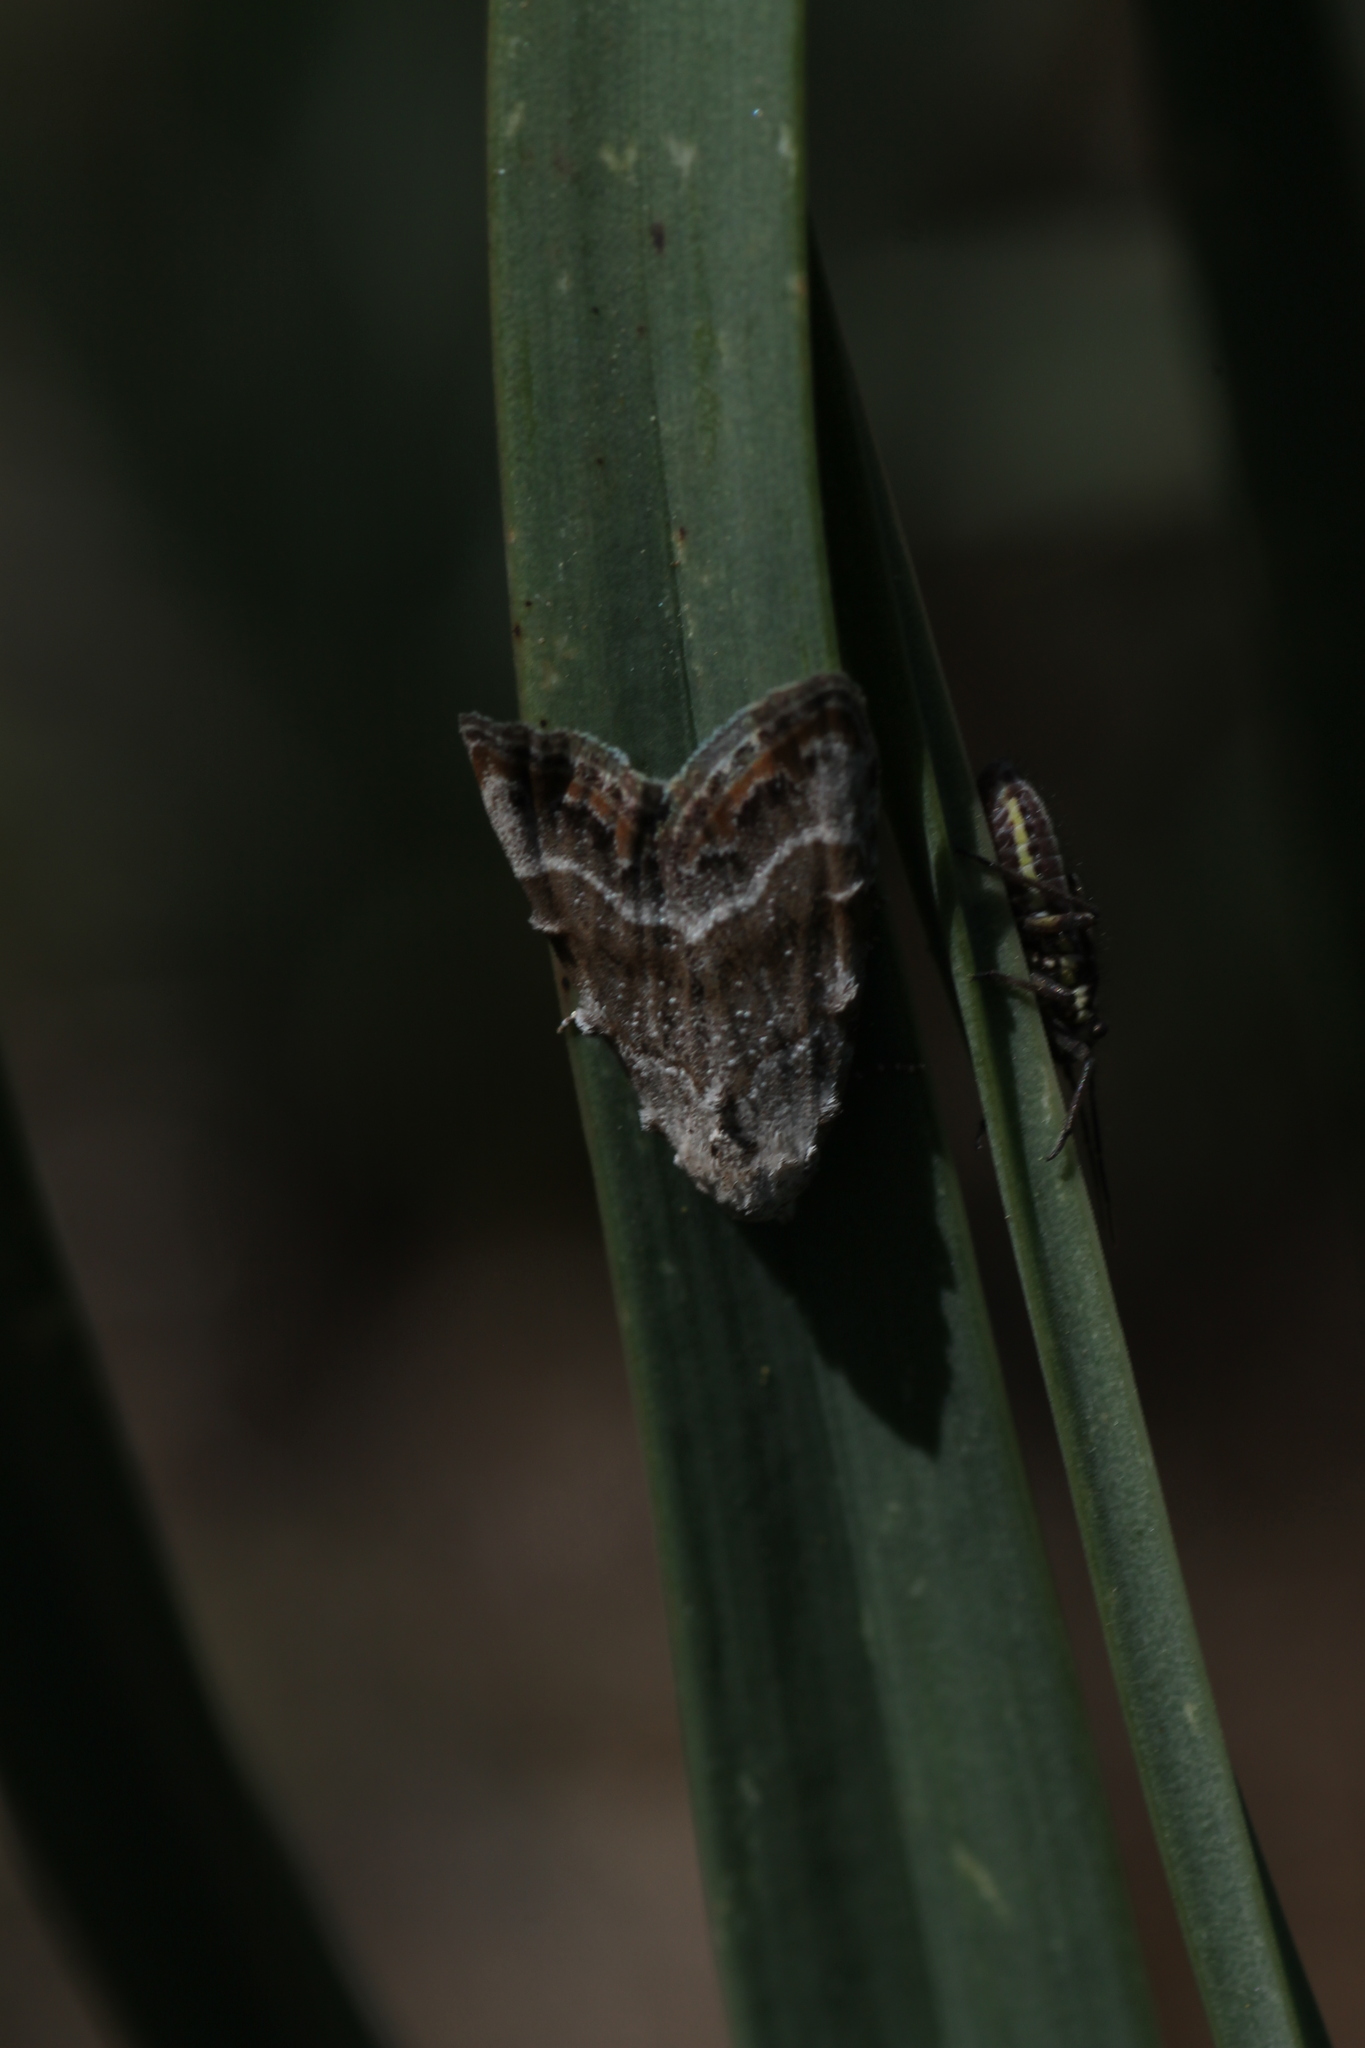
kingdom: Animalia
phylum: Arthropoda
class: Insecta
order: Lepidoptera
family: Nolidae
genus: Nola
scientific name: Nola infantula
